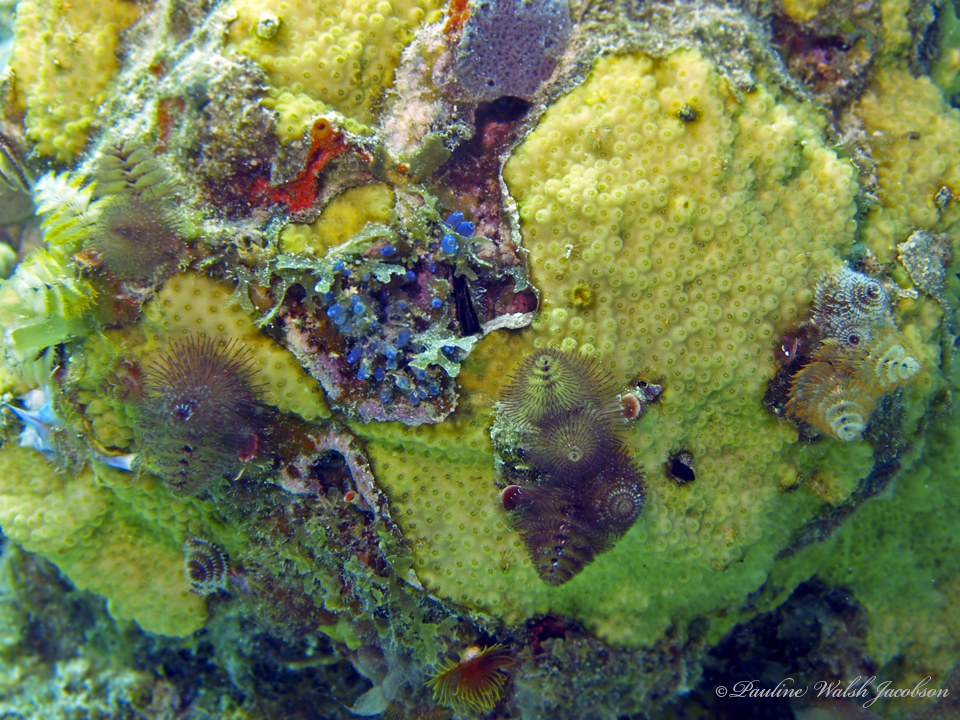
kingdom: Animalia
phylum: Annelida
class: Polychaeta
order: Sabellida
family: Serpulidae
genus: Spirobranchus
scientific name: Spirobranchus giganteus
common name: Christmas tree worm
